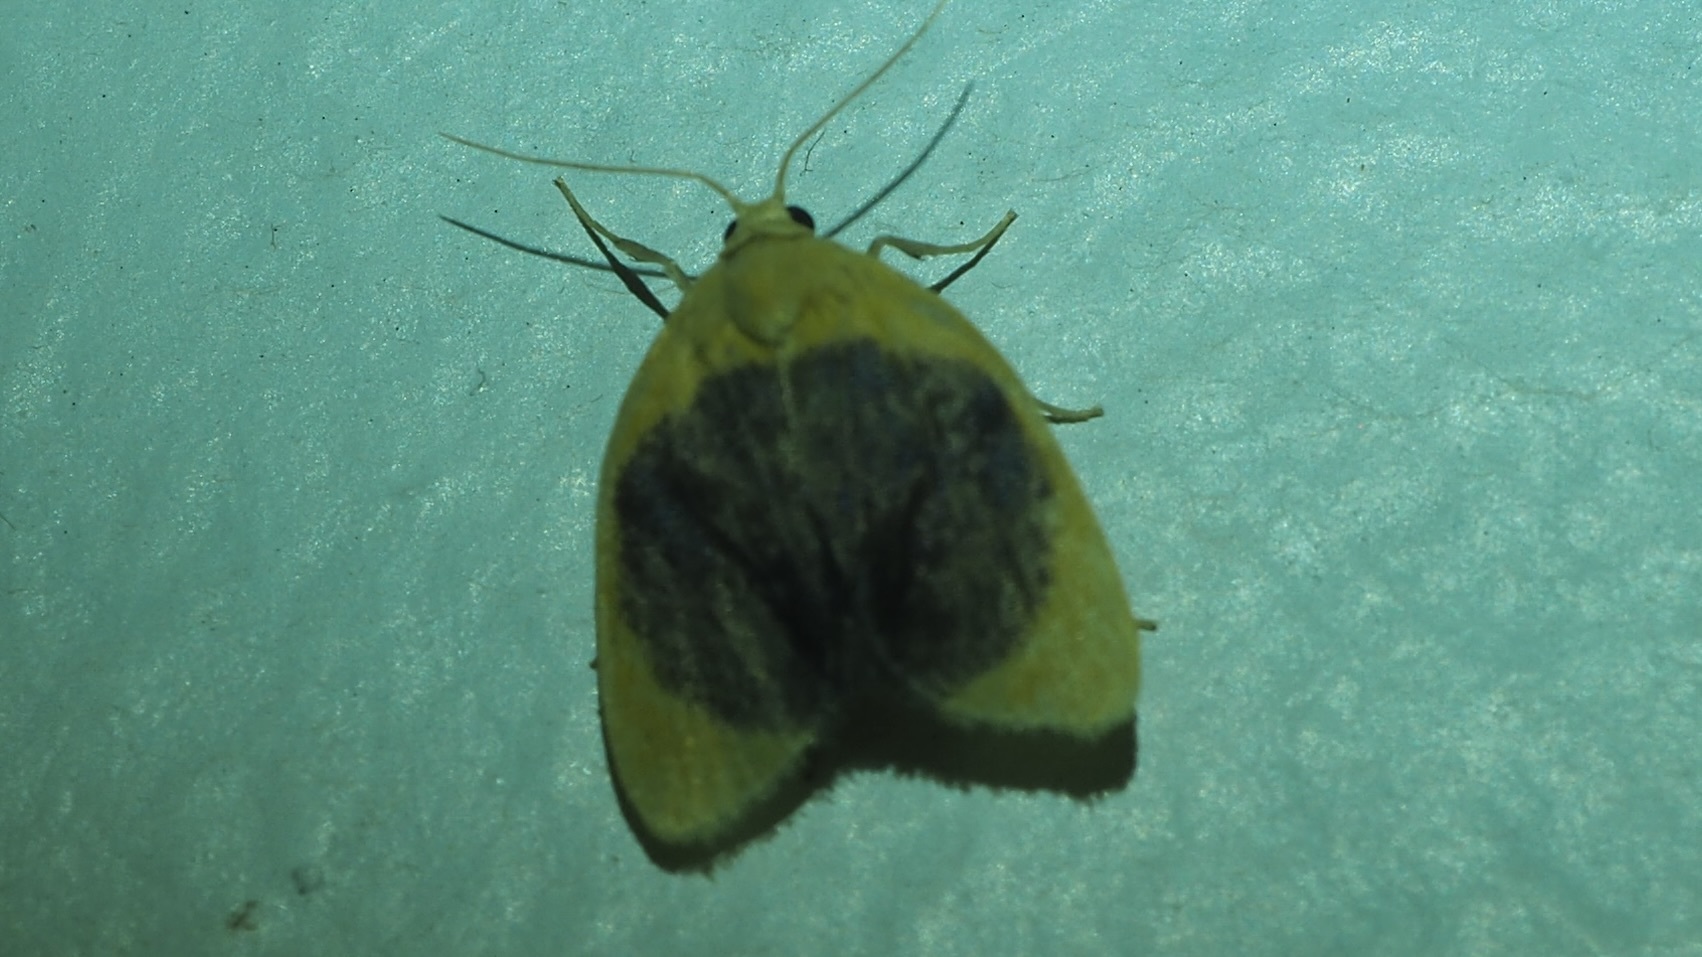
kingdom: Animalia
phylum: Arthropoda
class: Insecta
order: Lepidoptera
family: Erebidae
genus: Pronola
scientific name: Pronola magniplaga
